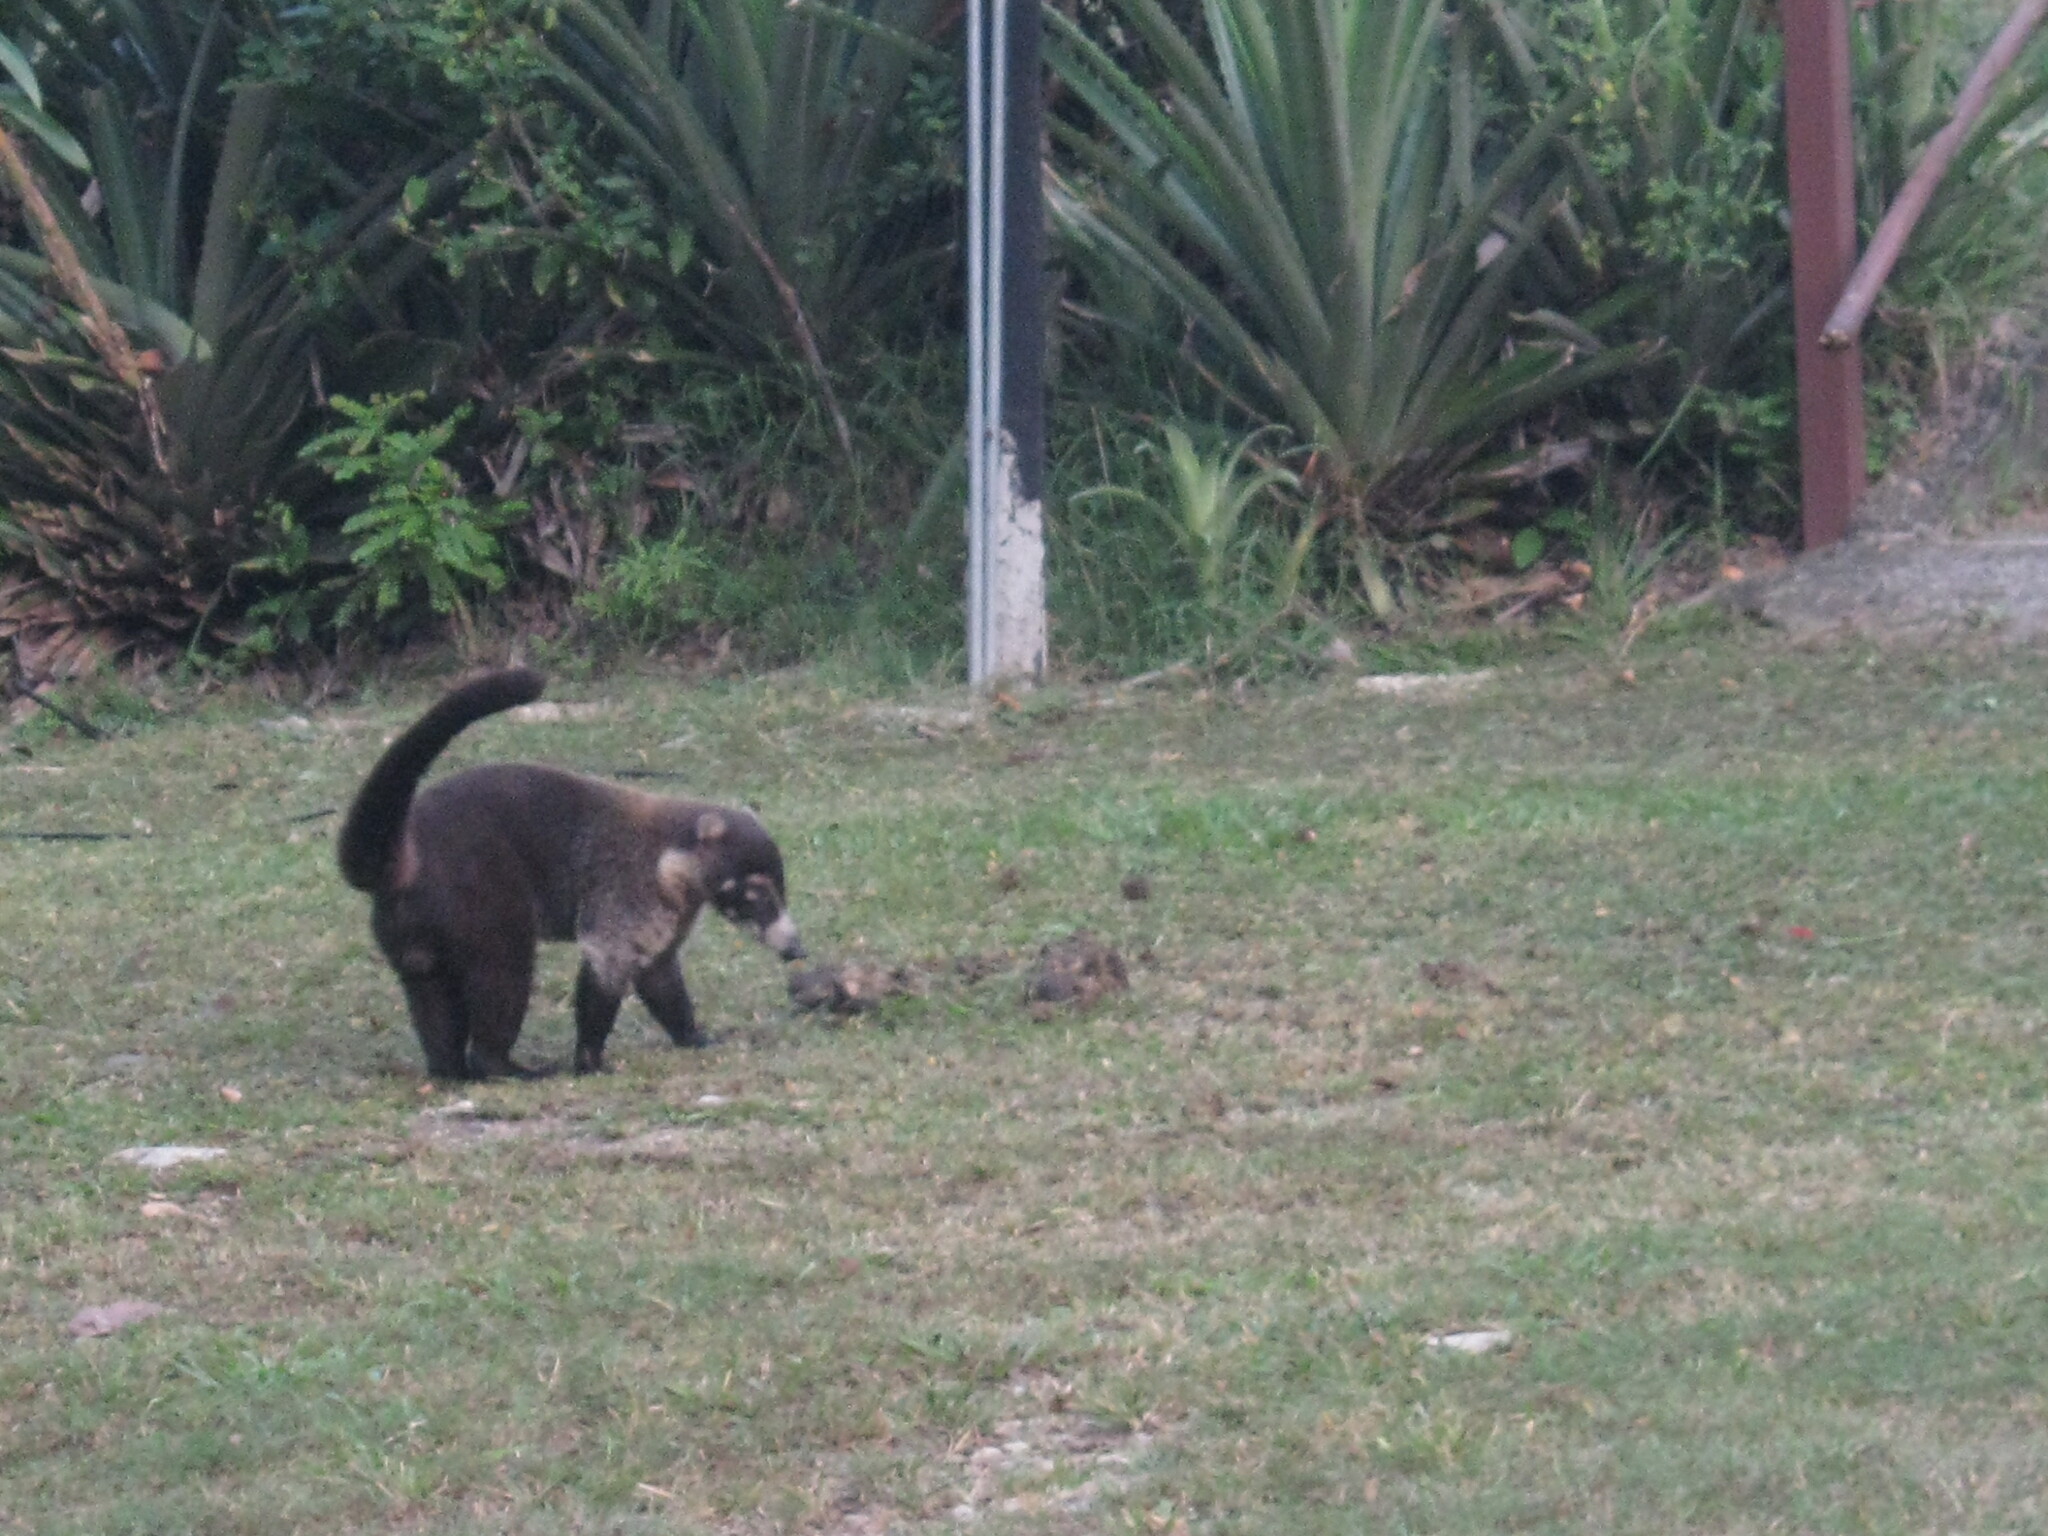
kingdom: Animalia
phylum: Chordata
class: Mammalia
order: Carnivora
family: Procyonidae
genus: Nasua
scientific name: Nasua narica
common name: White-nosed coati
